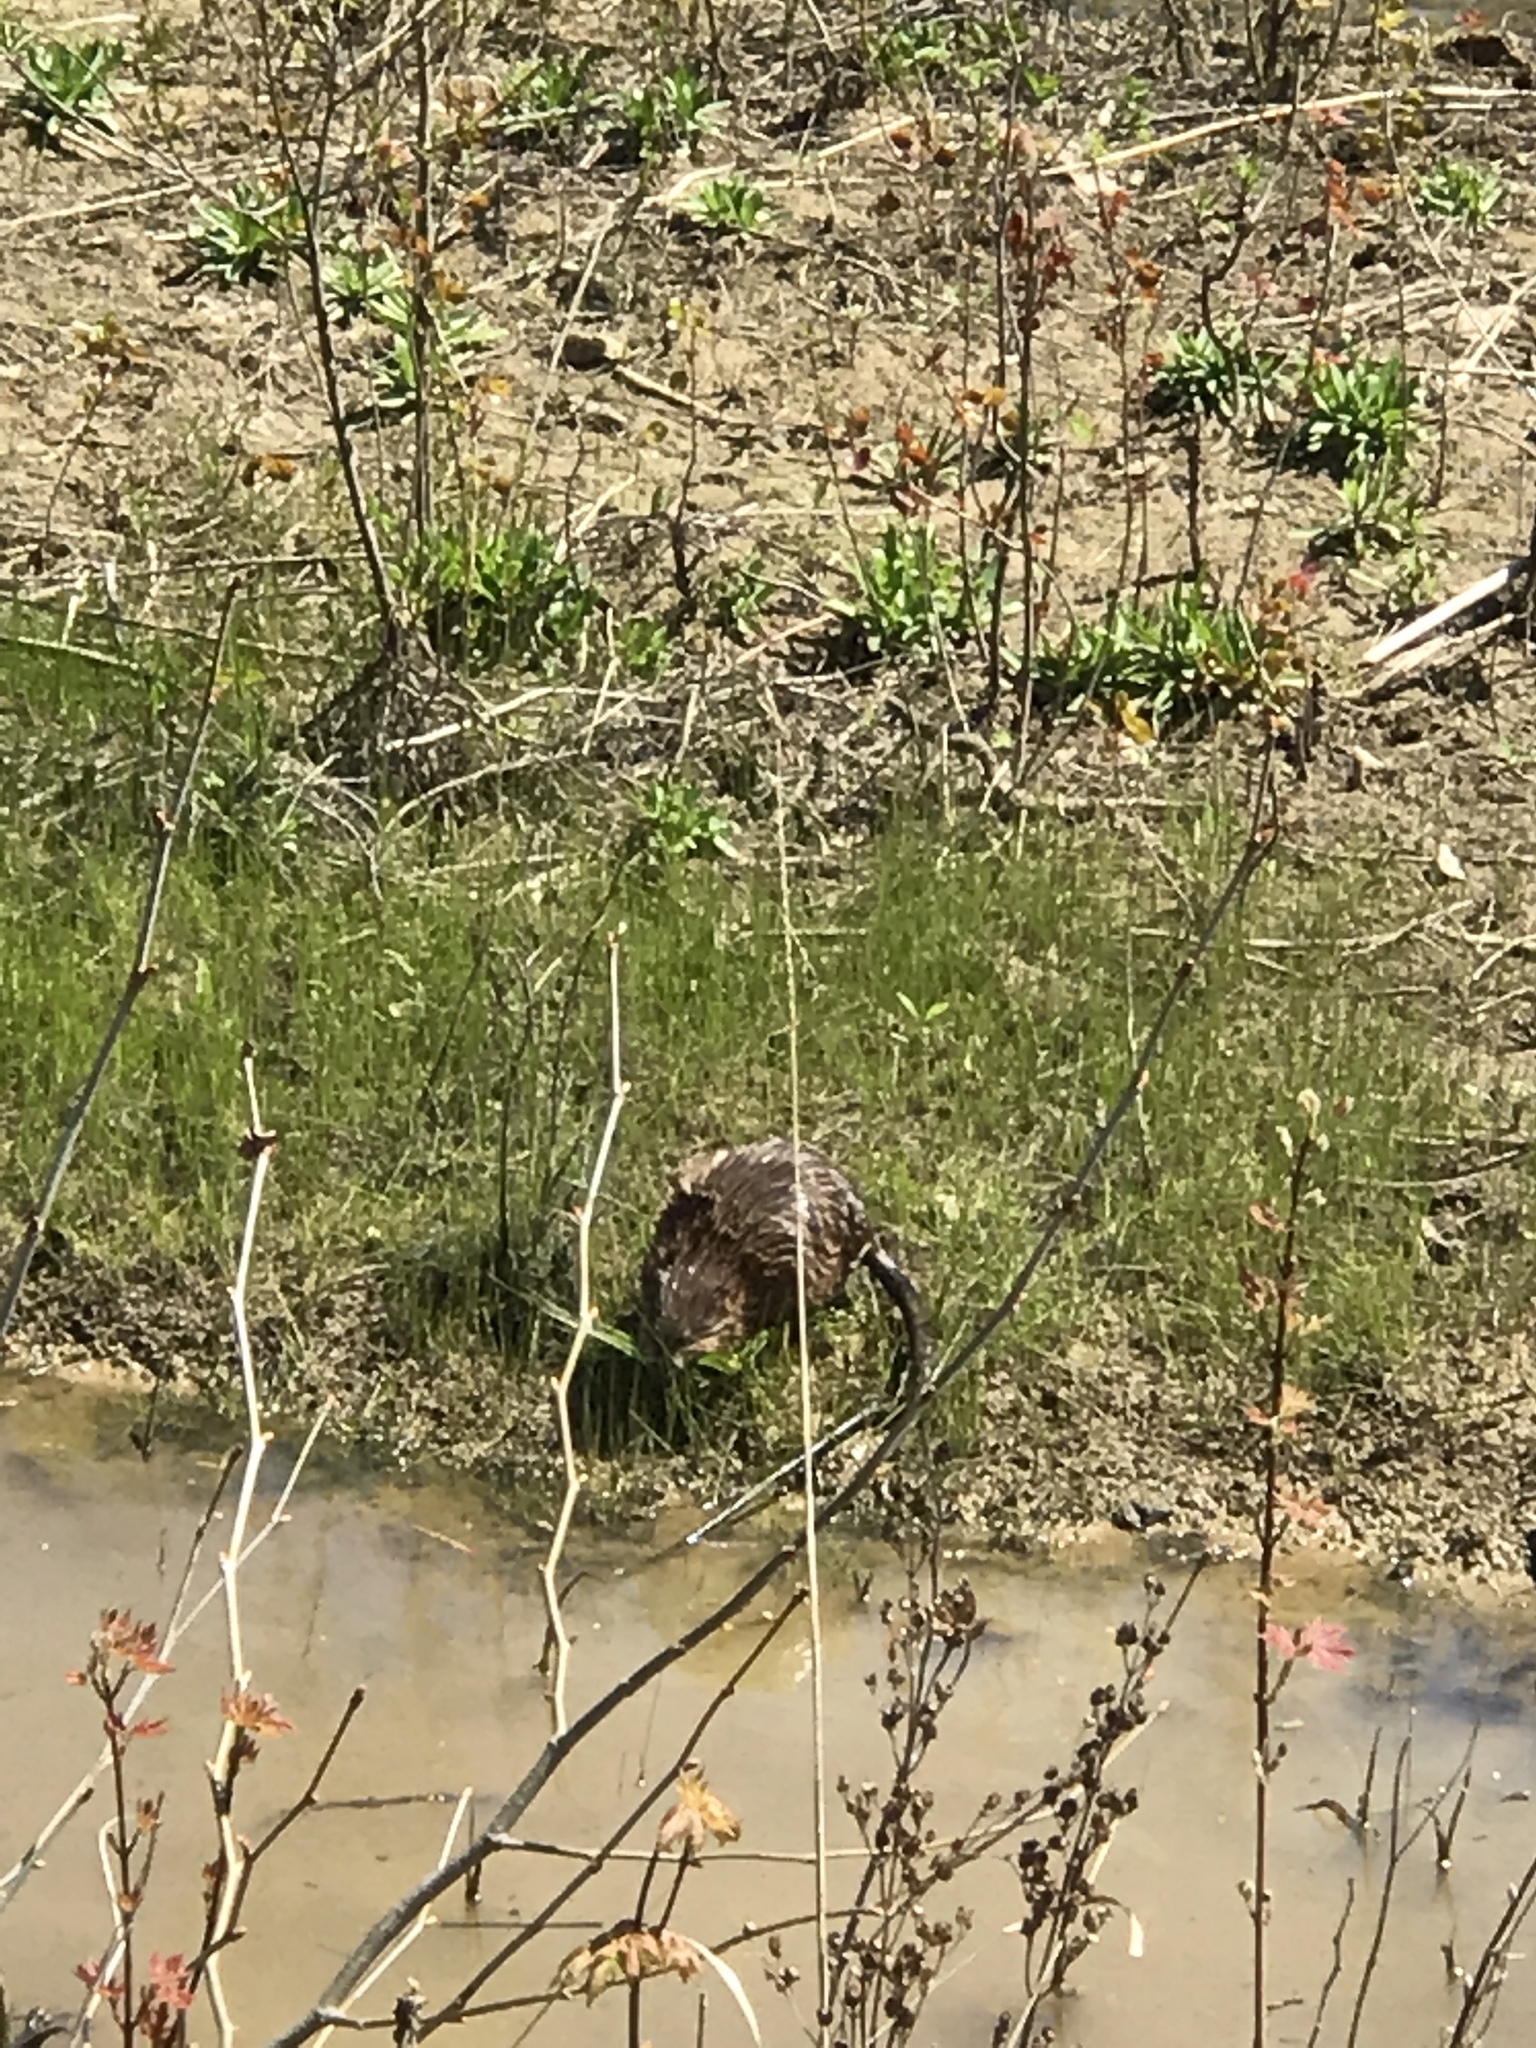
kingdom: Animalia
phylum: Chordata
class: Mammalia
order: Rodentia
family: Cricetidae
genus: Ondatra
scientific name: Ondatra zibethicus
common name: Muskrat
